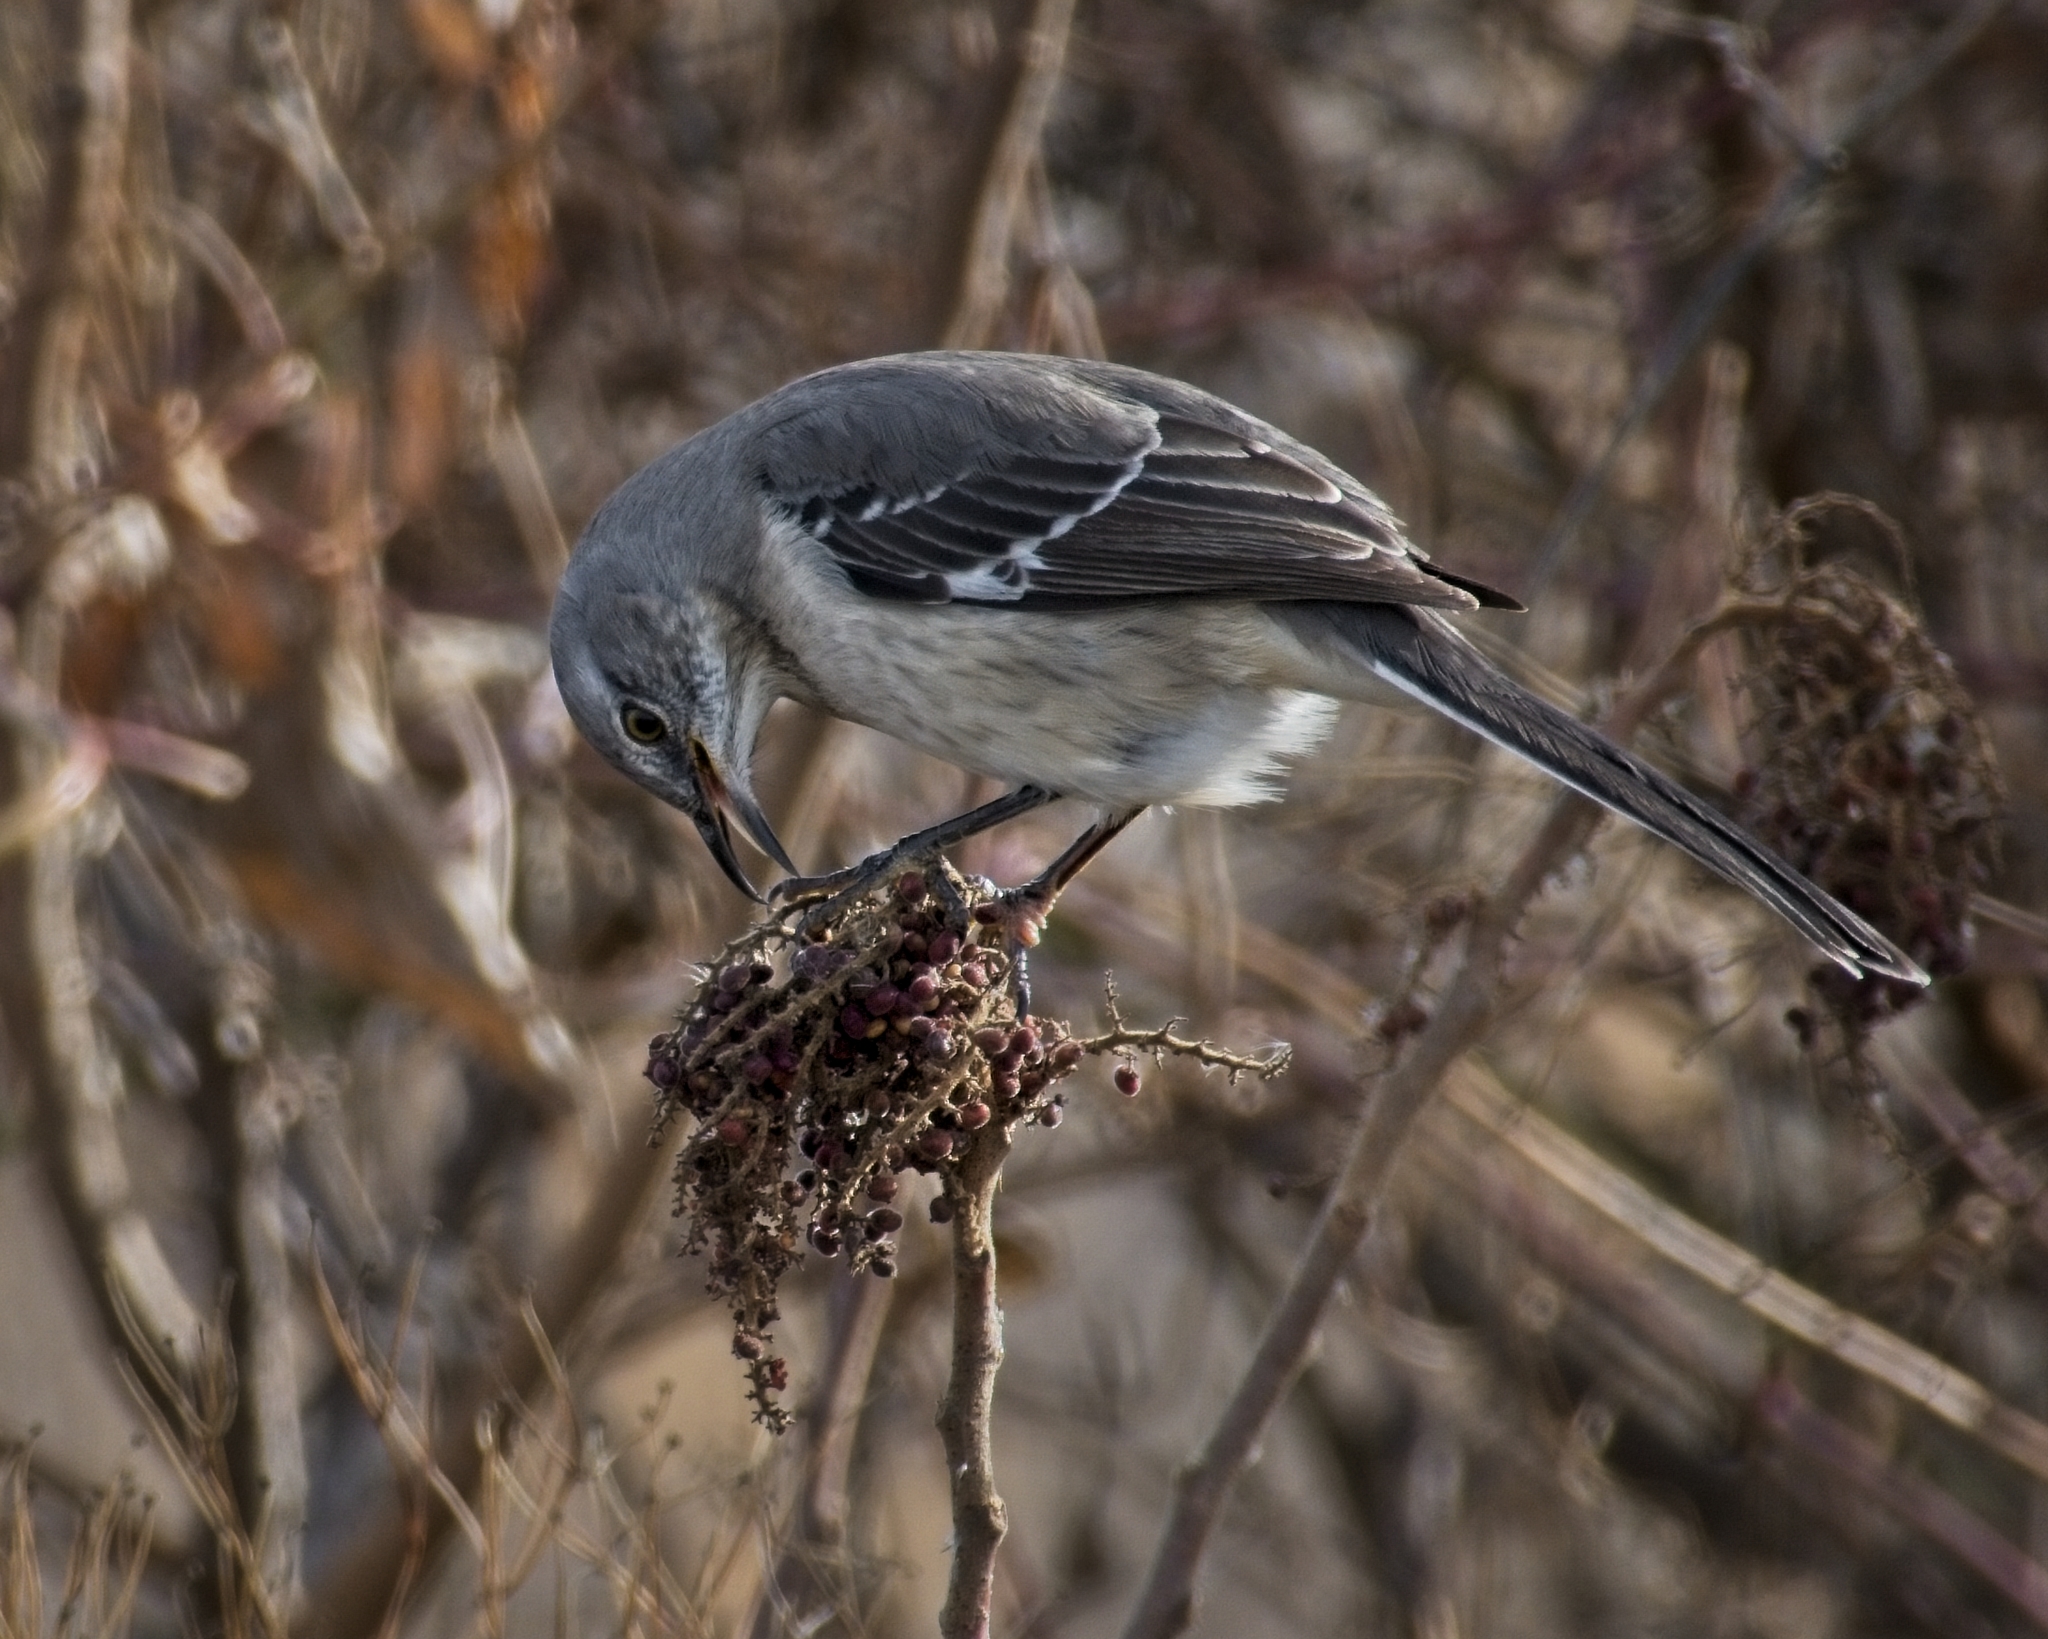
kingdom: Animalia
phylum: Chordata
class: Aves
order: Passeriformes
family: Mimidae
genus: Mimus
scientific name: Mimus polyglottos
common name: Northern mockingbird
